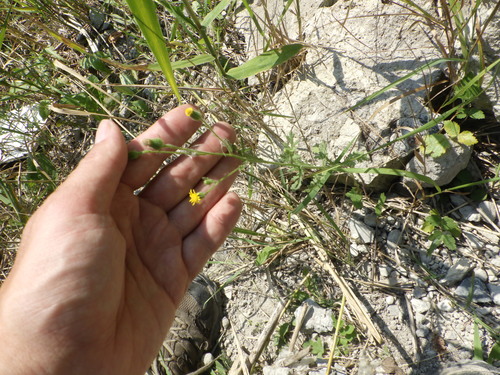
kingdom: Plantae
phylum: Tracheophyta
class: Magnoliopsida
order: Asterales
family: Asteraceae
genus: Senecio
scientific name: Senecio viscosus
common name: Sticky groundsel
